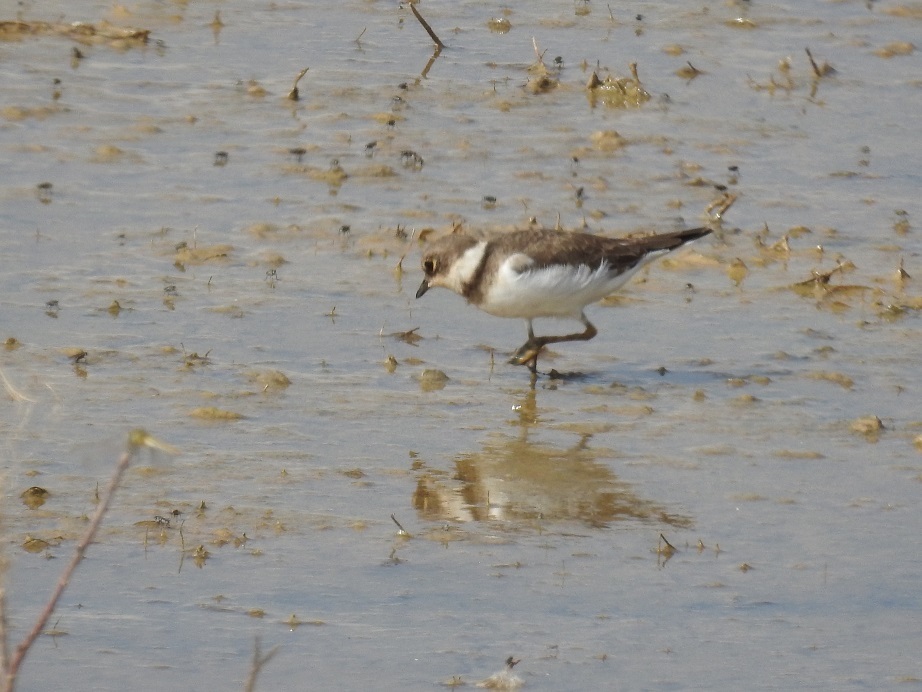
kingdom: Animalia
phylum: Chordata
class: Aves
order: Charadriiformes
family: Charadriidae
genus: Charadrius
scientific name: Charadrius dubius
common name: Little ringed plover
